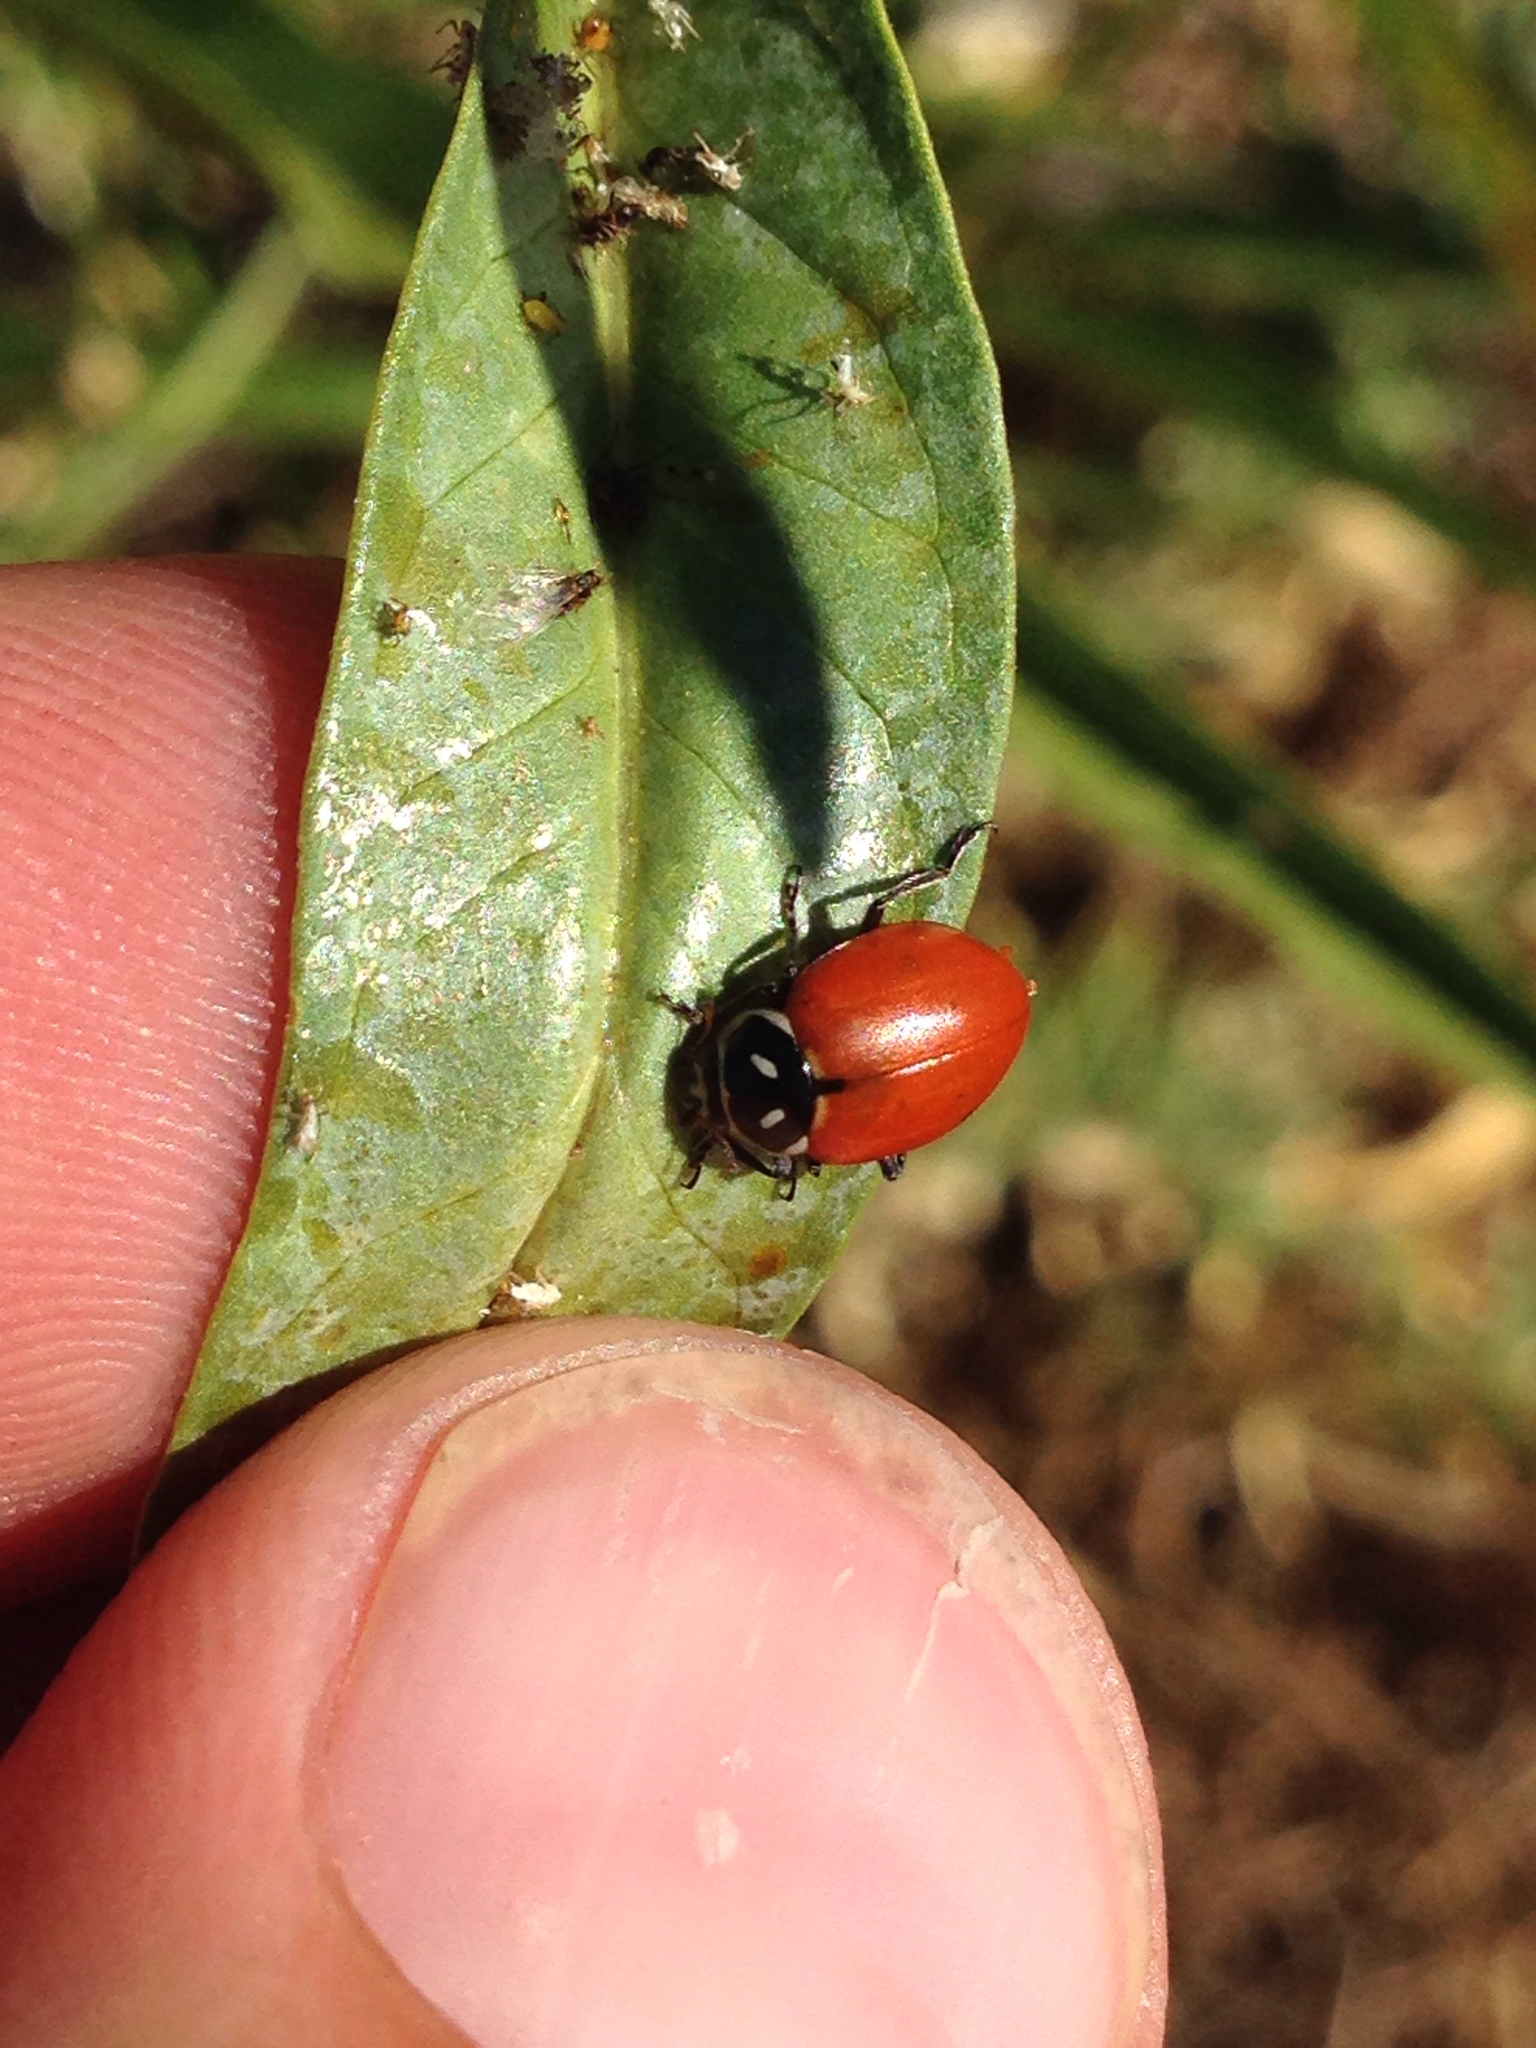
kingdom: Animalia
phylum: Arthropoda
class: Insecta
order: Coleoptera
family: Coccinellidae
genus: Hippodamia
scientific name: Hippodamia convergens
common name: Convergent lady beetle
